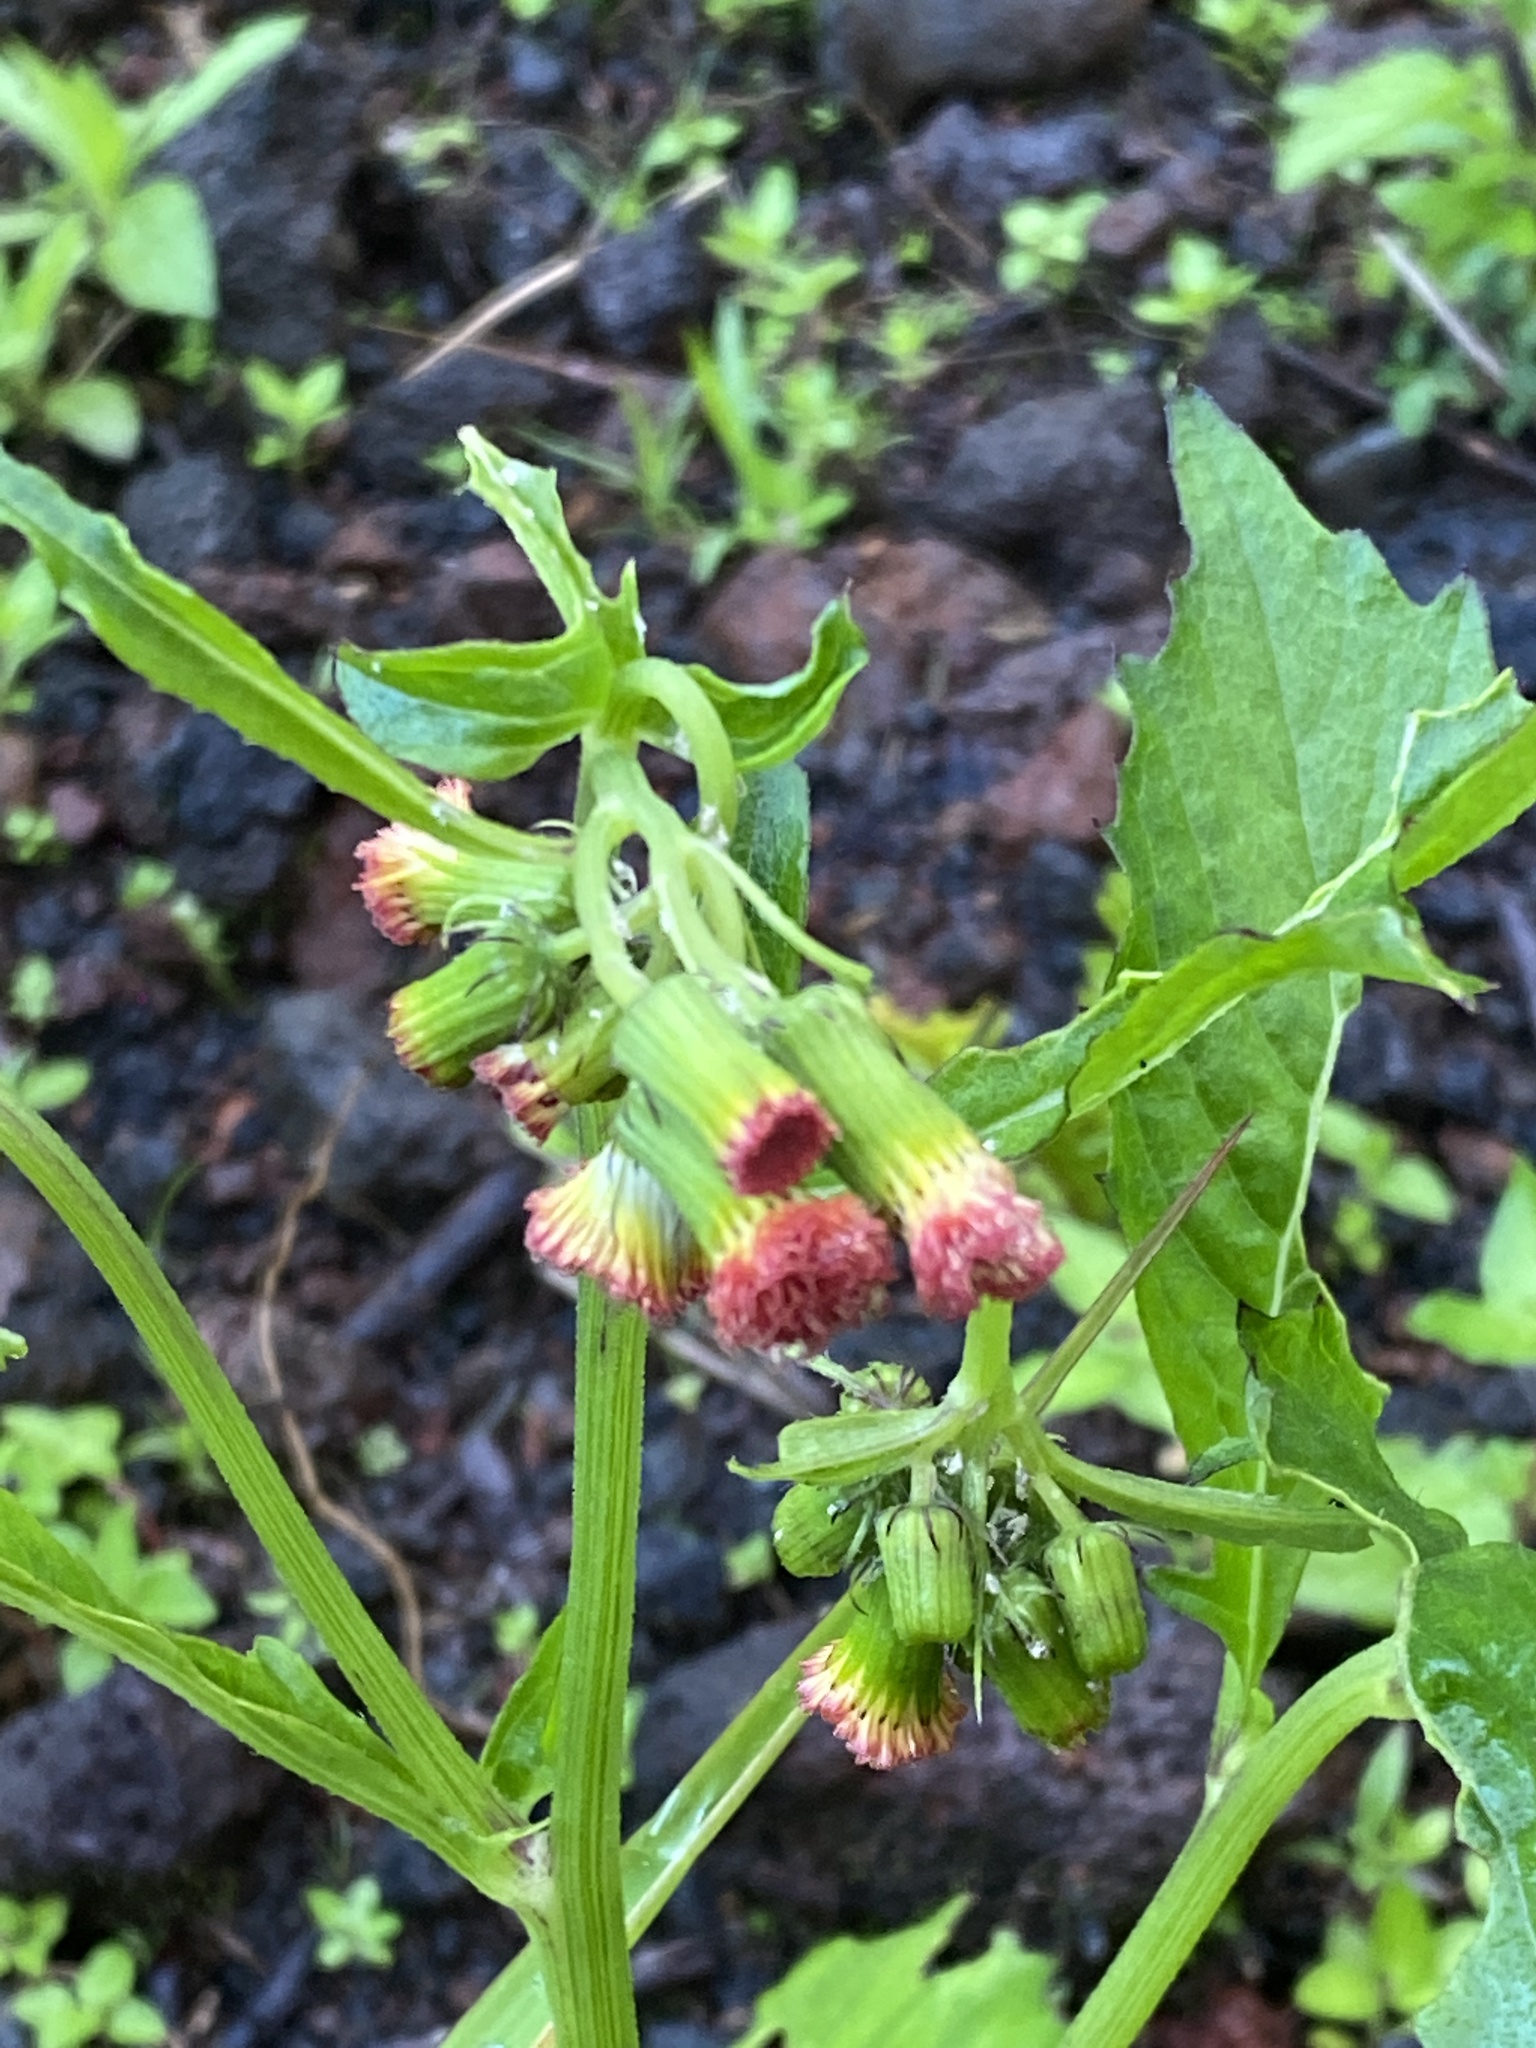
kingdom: Plantae
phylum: Tracheophyta
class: Magnoliopsida
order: Asterales
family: Asteraceae
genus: Crassocephalum
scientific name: Crassocephalum crepidioides
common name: Redflower ragleaf
